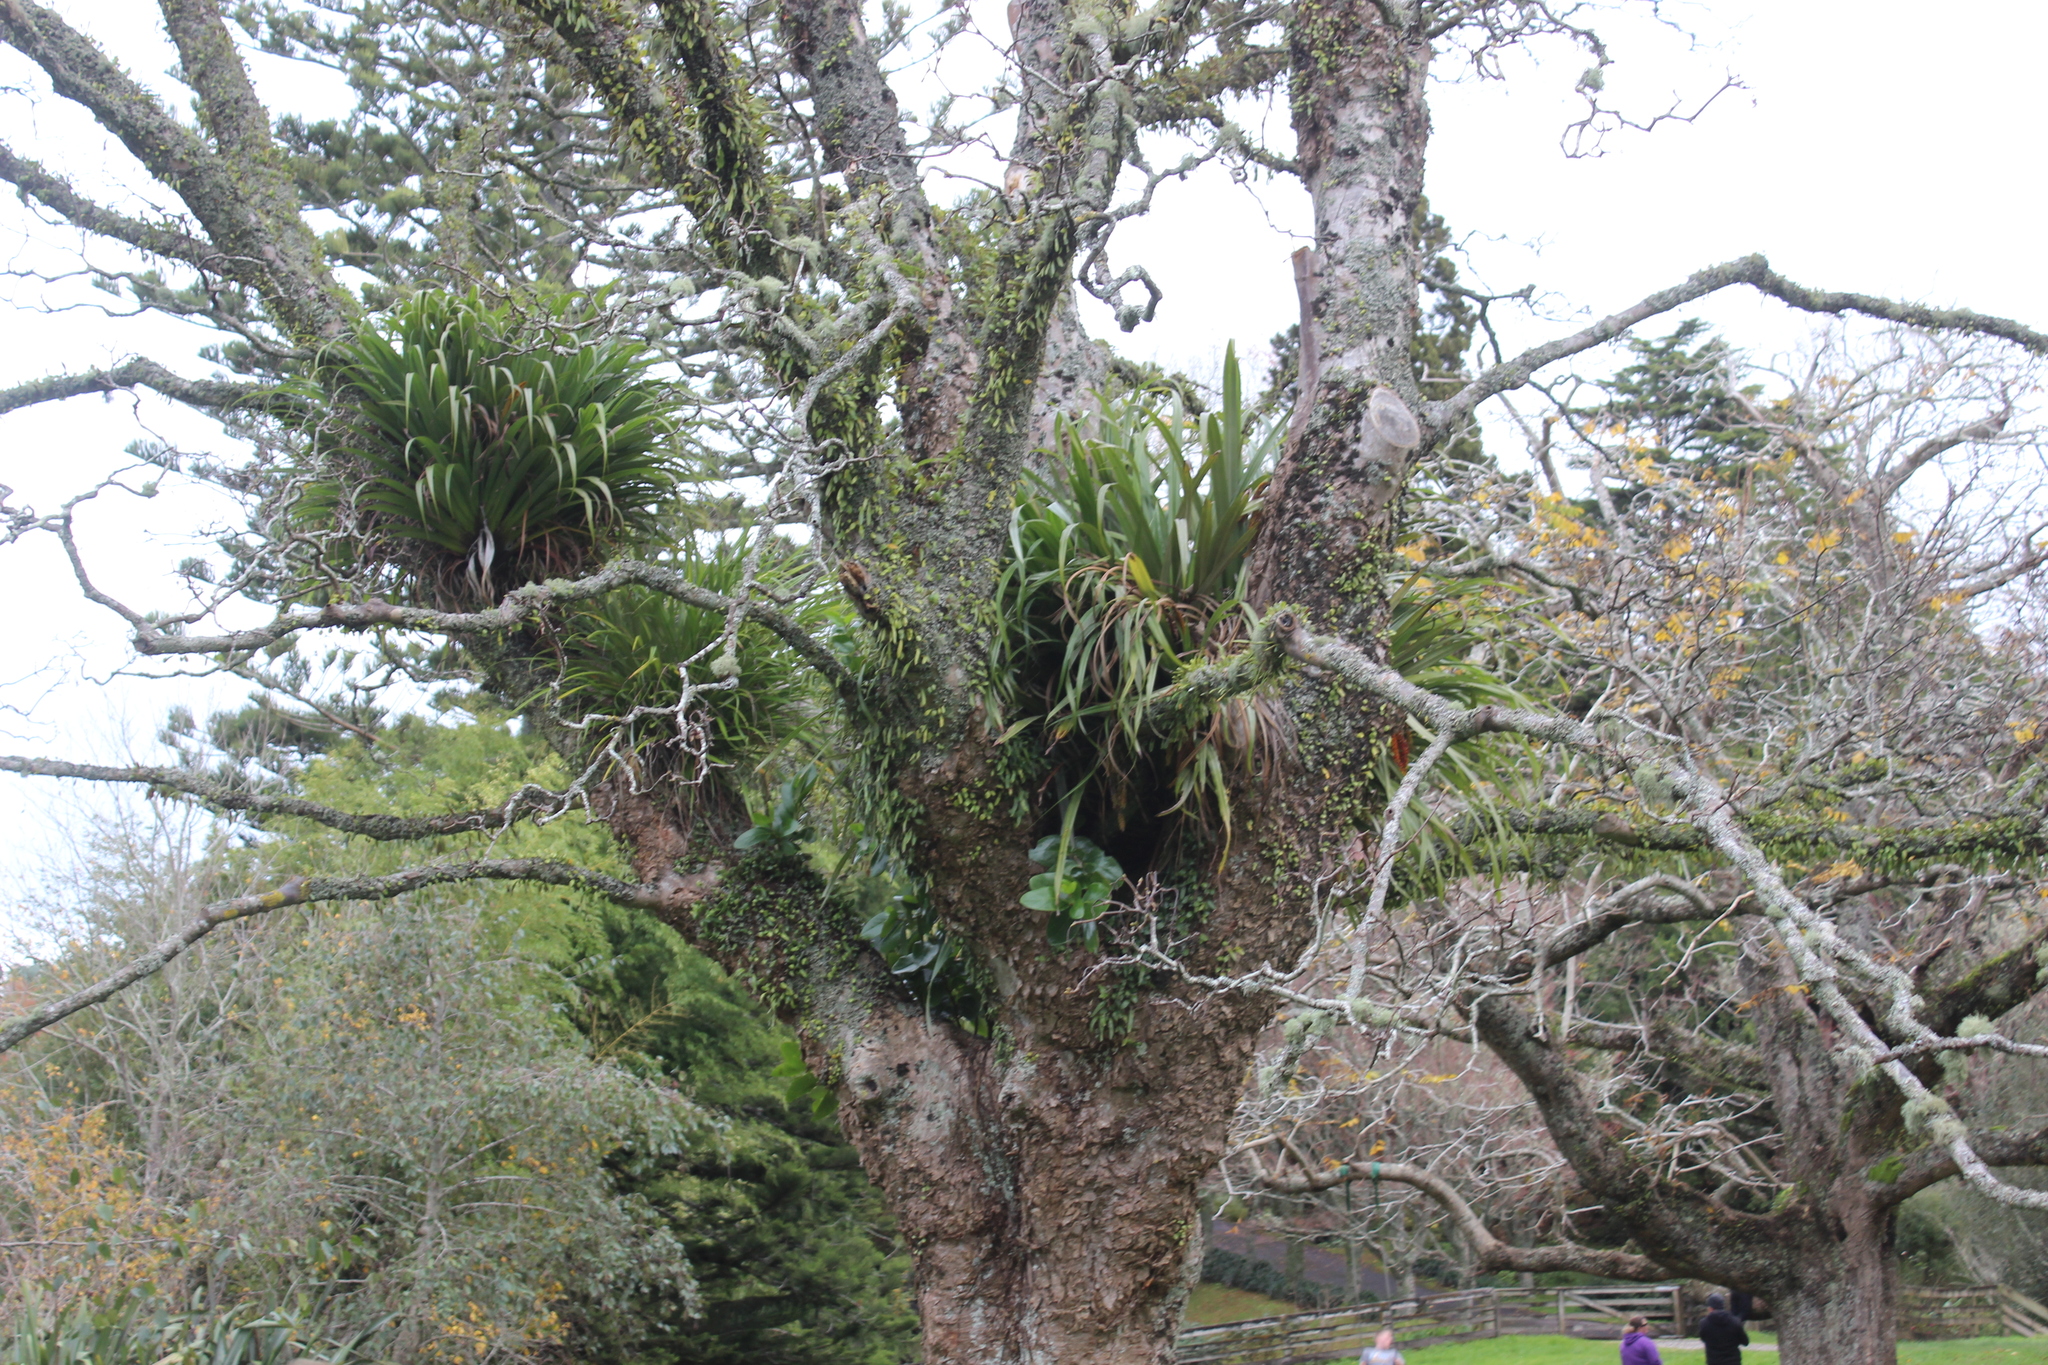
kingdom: Plantae
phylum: Tracheophyta
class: Liliopsida
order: Asparagales
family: Asteliaceae
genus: Astelia
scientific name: Astelia hastata
